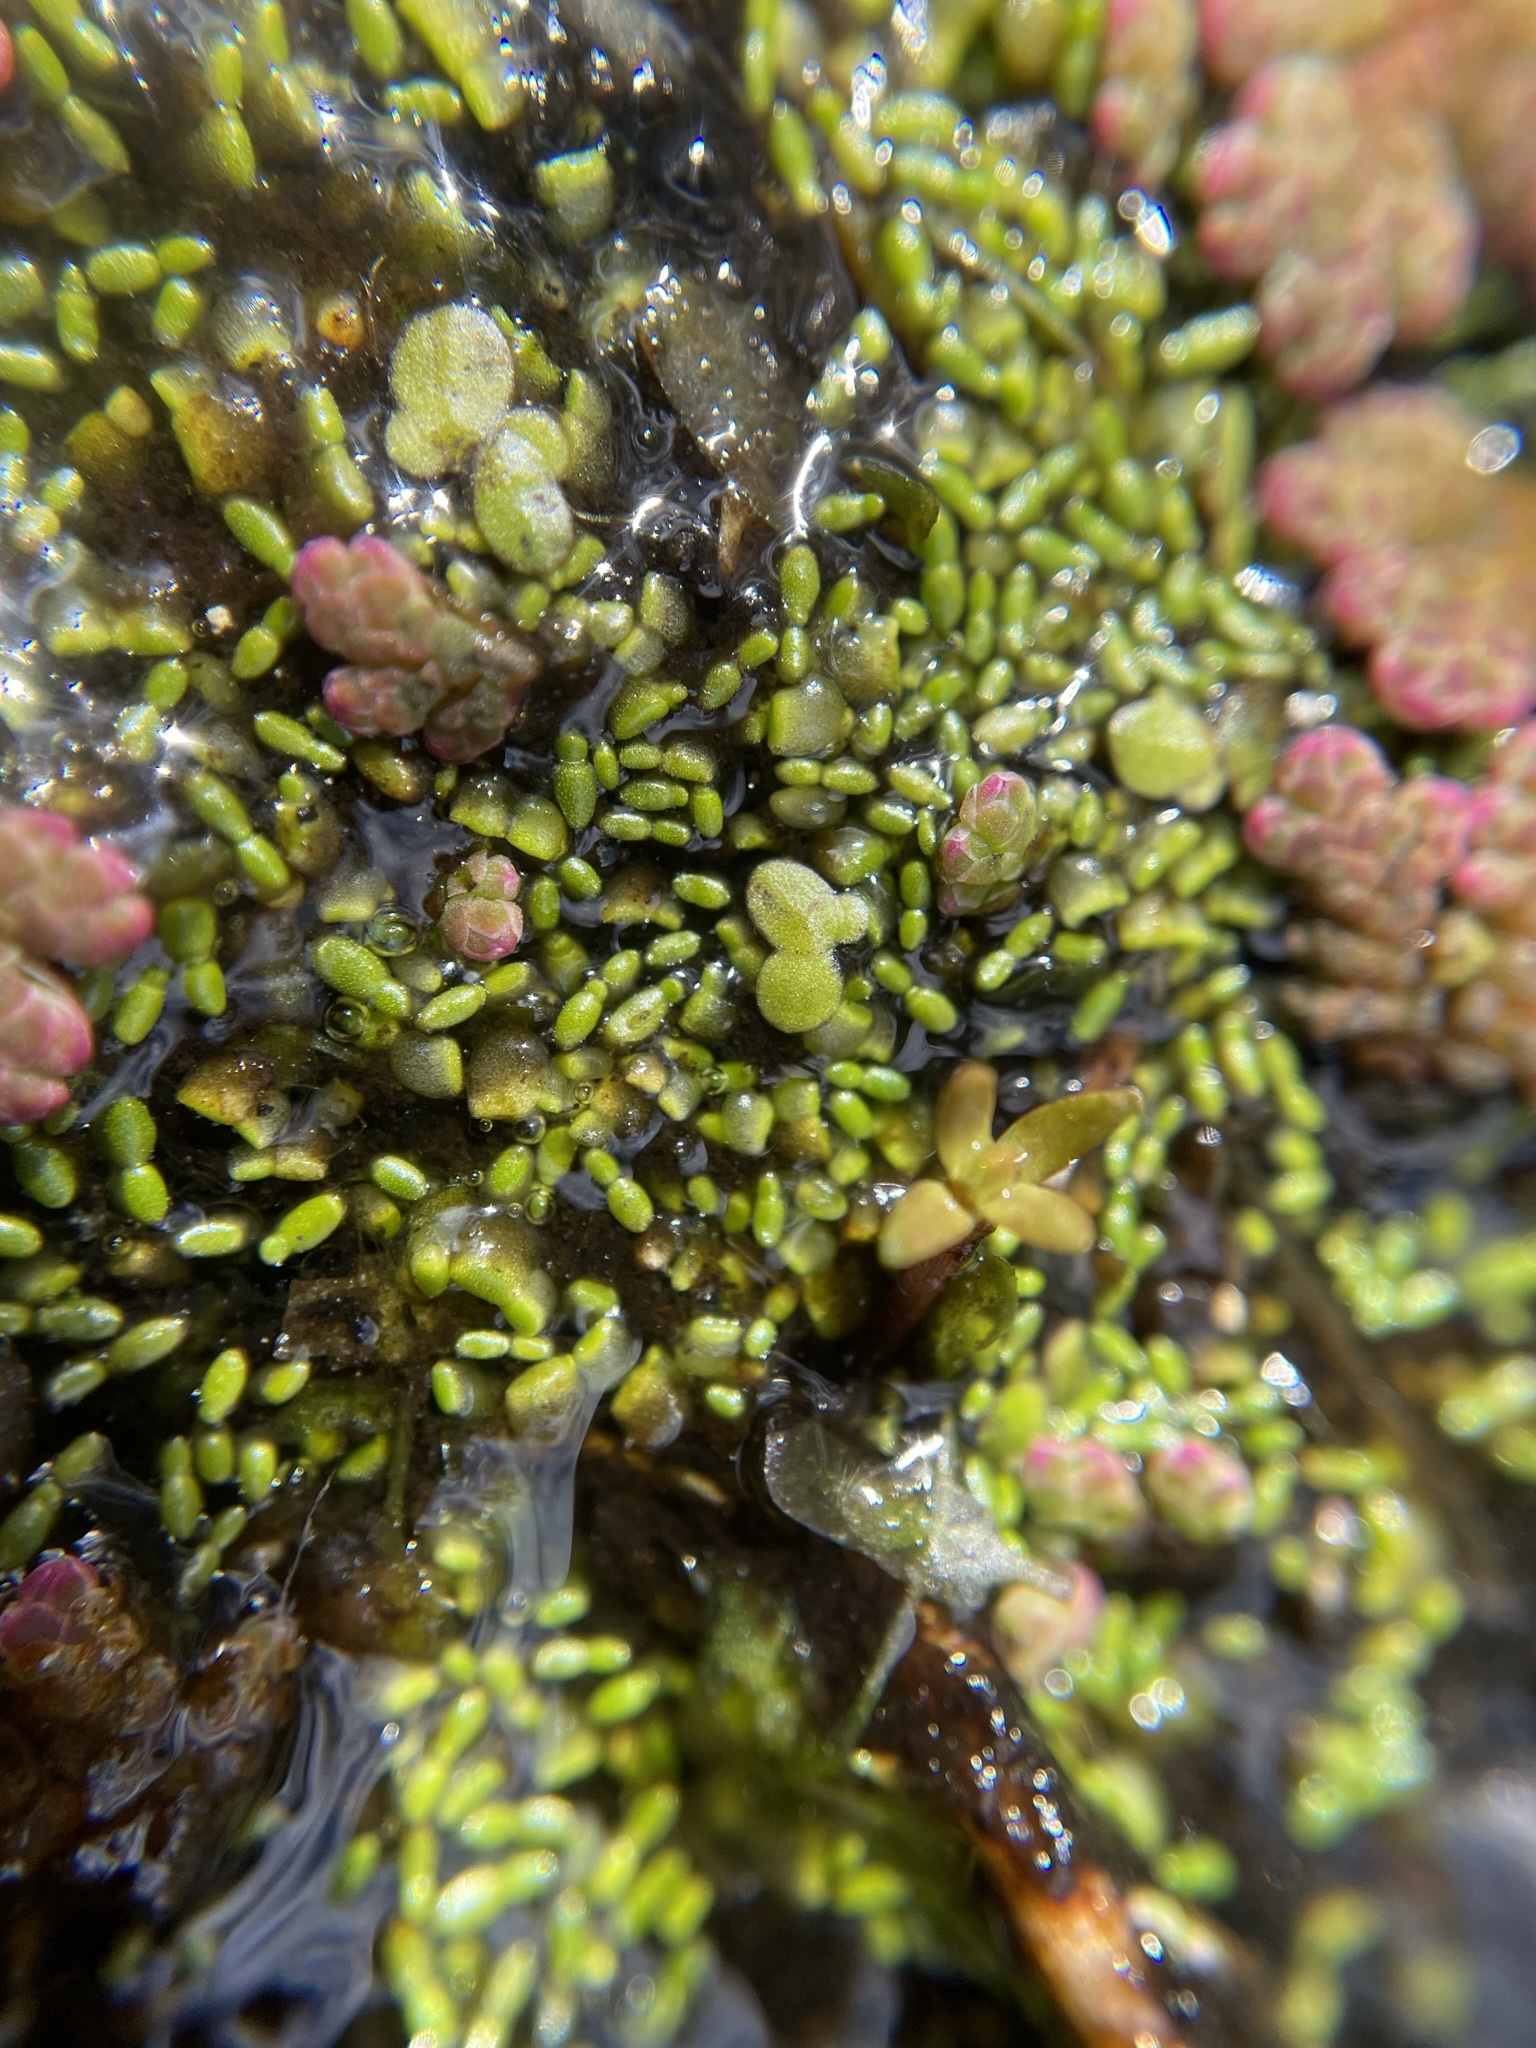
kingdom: Plantae
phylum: Tracheophyta
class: Liliopsida
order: Alismatales
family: Araceae
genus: Wolffia
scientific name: Wolffia australiana
